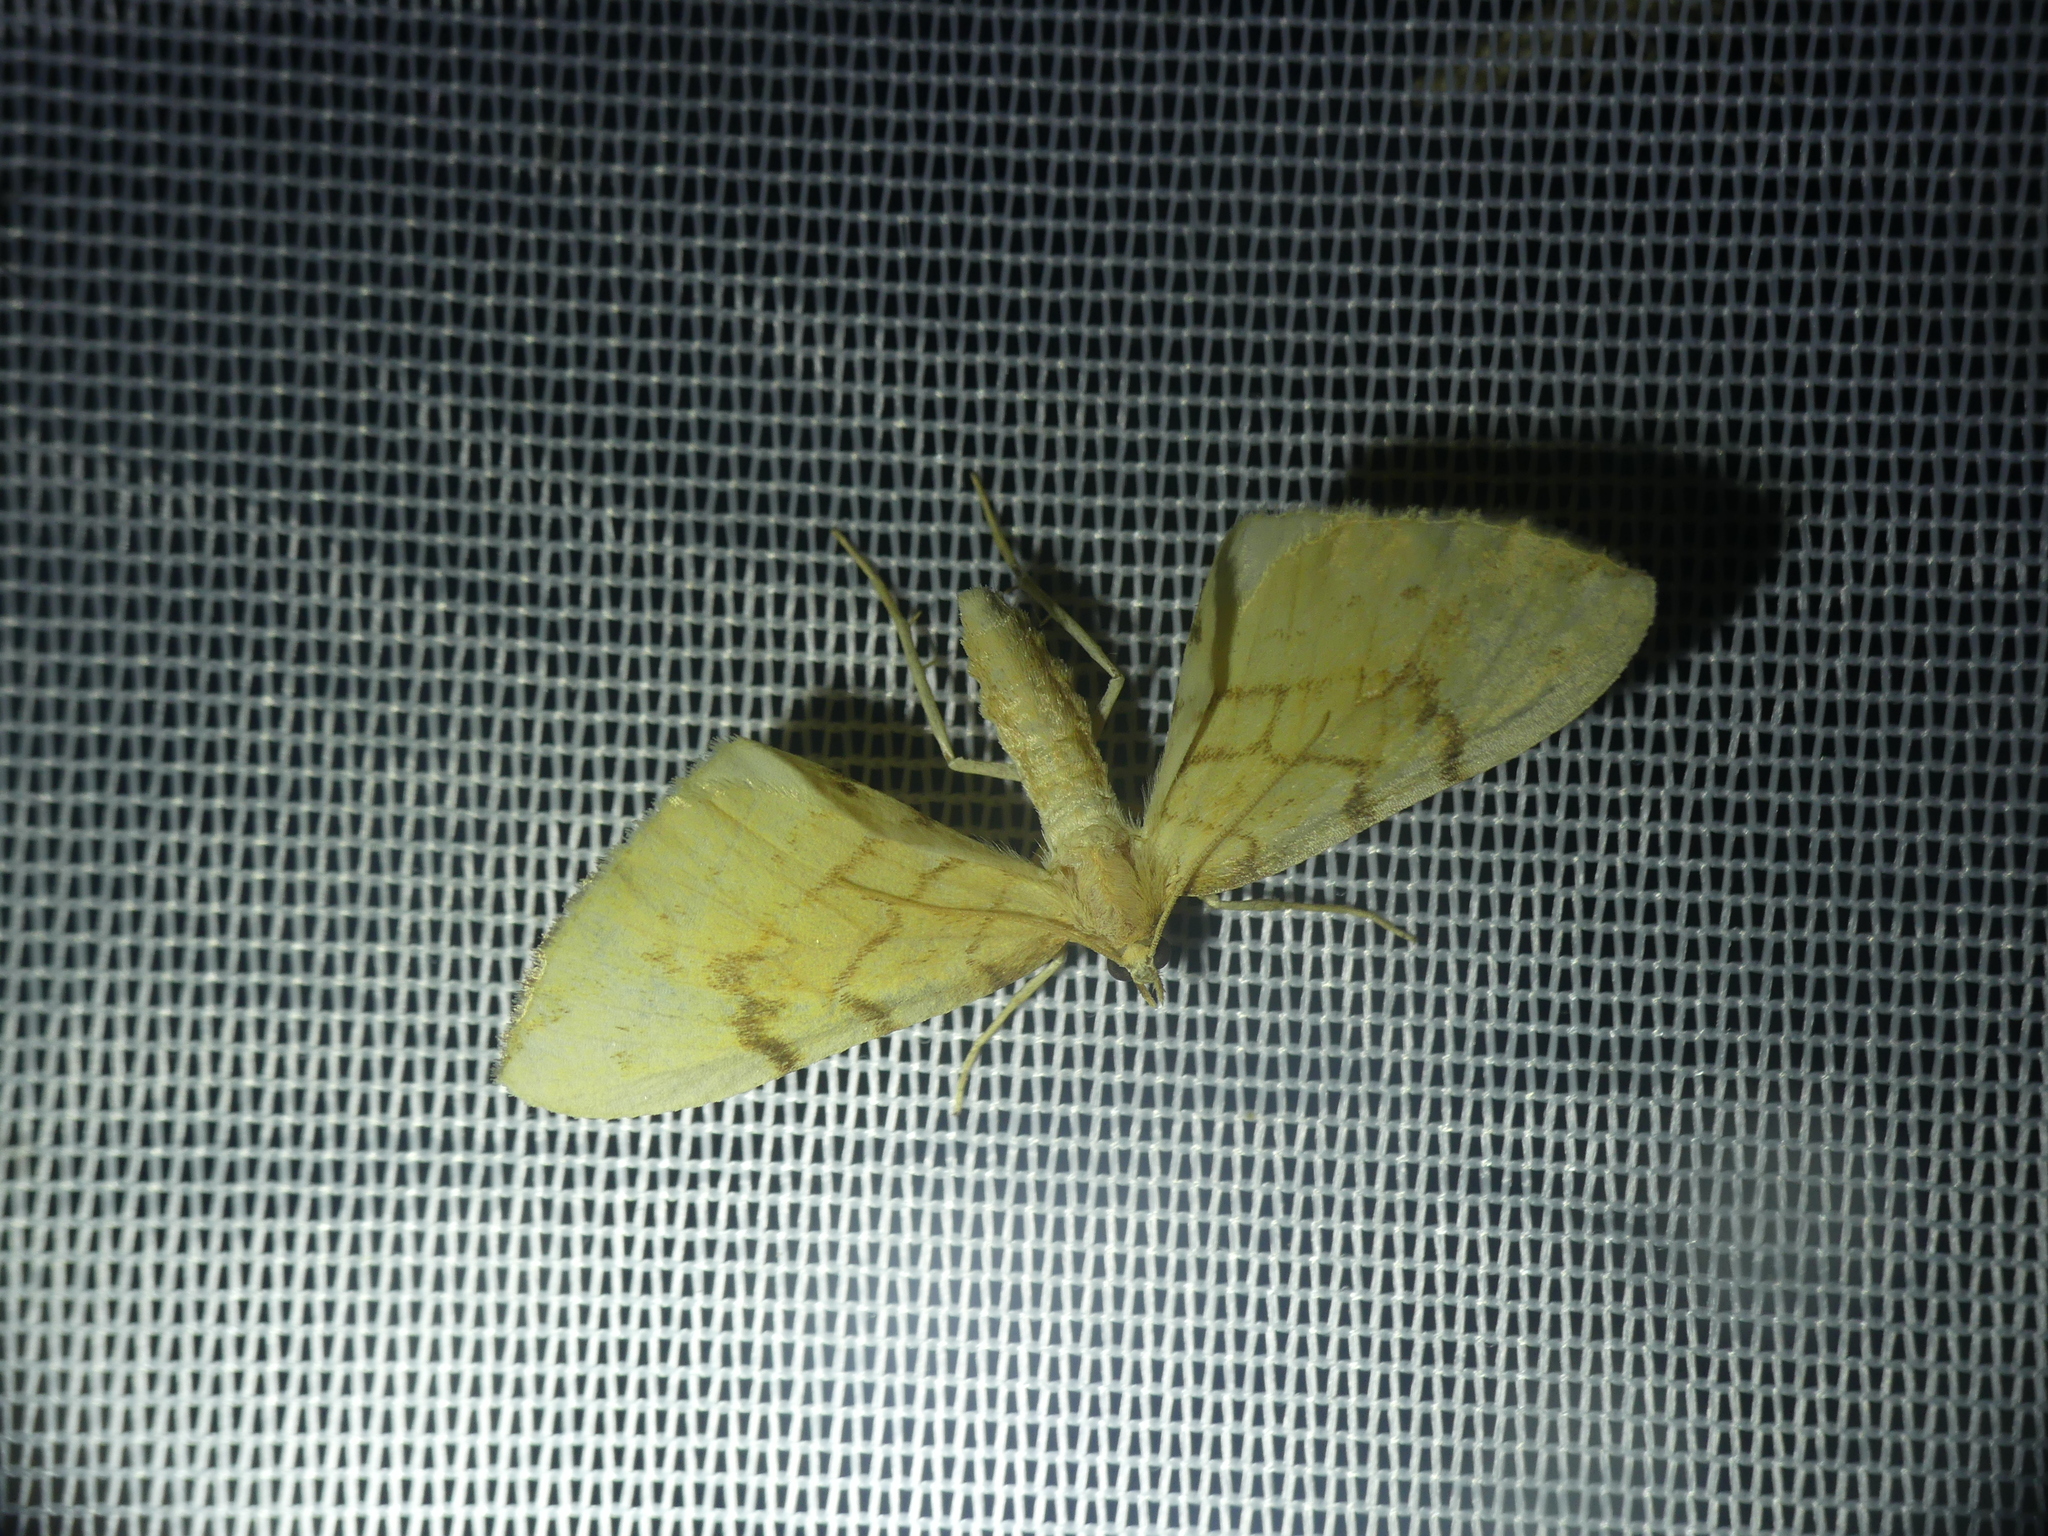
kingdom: Animalia
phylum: Arthropoda
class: Insecta
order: Lepidoptera
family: Geometridae
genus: Eulithis
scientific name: Eulithis pyraliata
